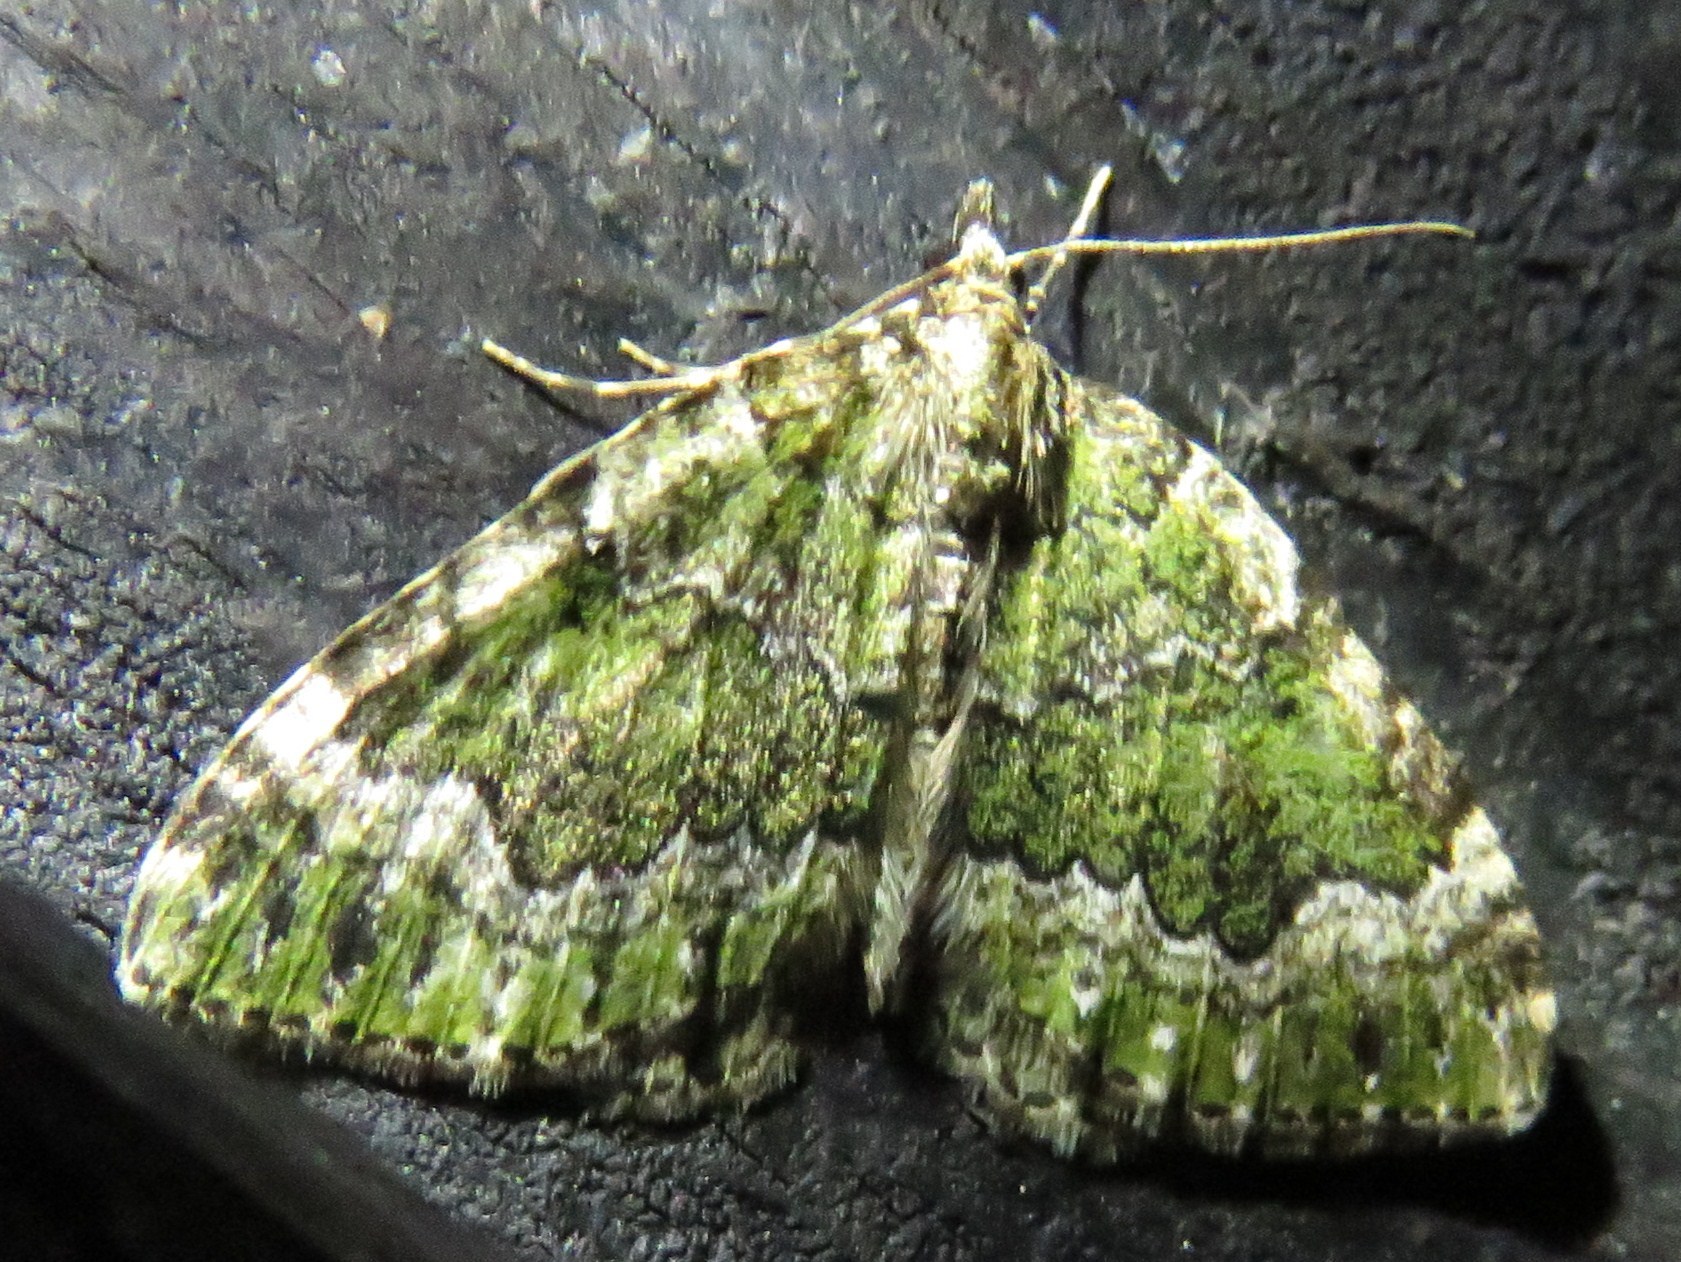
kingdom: Animalia
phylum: Arthropoda
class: Insecta
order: Lepidoptera
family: Geometridae
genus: Colostygia
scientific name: Colostygia olivata
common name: Beech-green carpet
